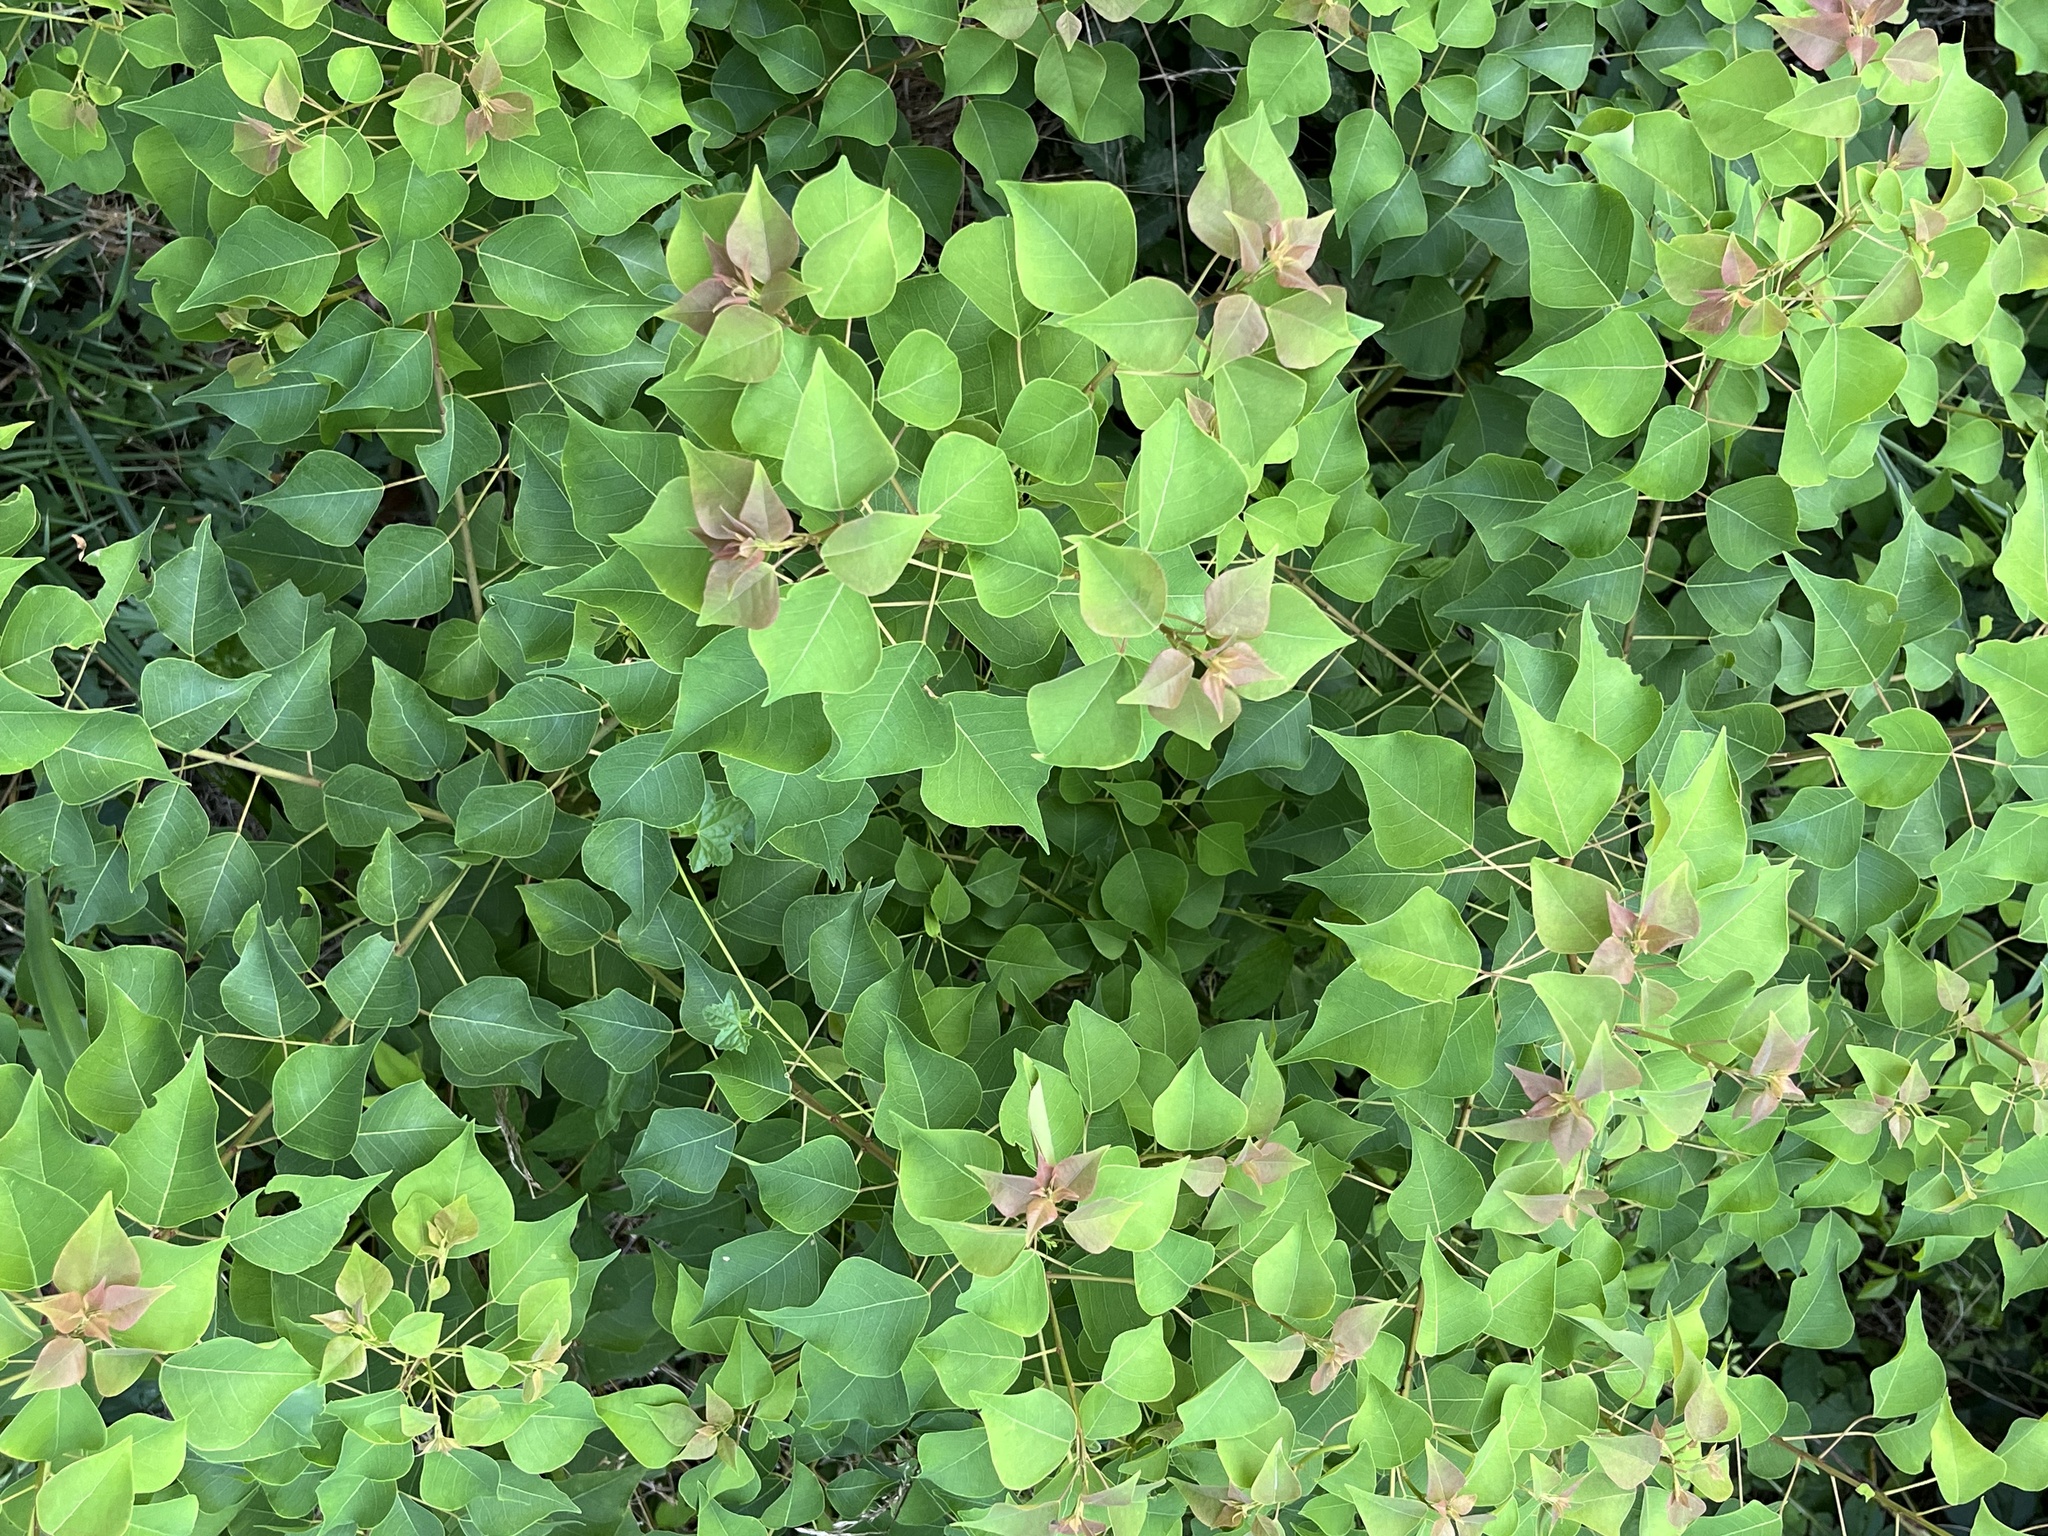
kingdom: Plantae
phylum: Tracheophyta
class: Magnoliopsida
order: Malpighiales
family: Euphorbiaceae
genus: Triadica
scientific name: Triadica sebifera
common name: Chinese tallow
